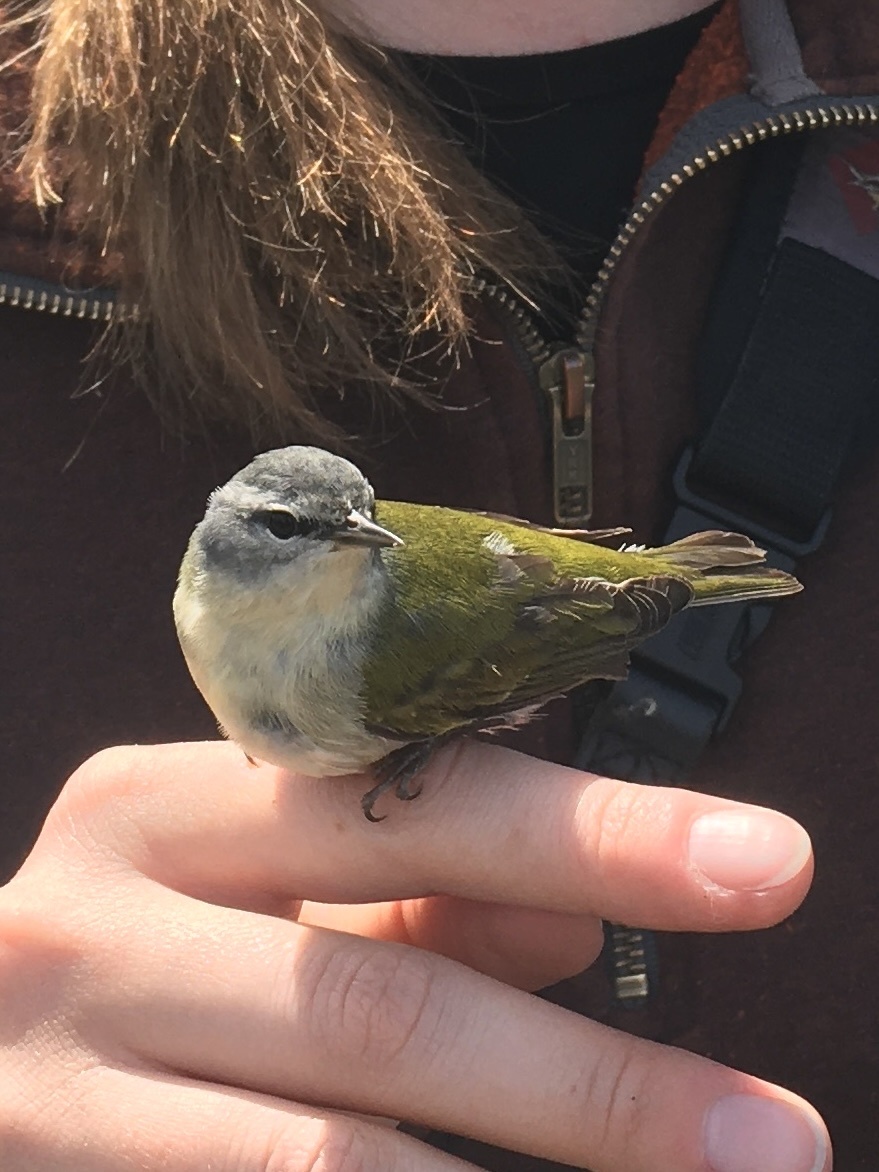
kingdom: Animalia
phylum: Chordata
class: Aves
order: Passeriformes
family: Parulidae
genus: Leiothlypis
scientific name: Leiothlypis peregrina
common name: Tennessee warbler
